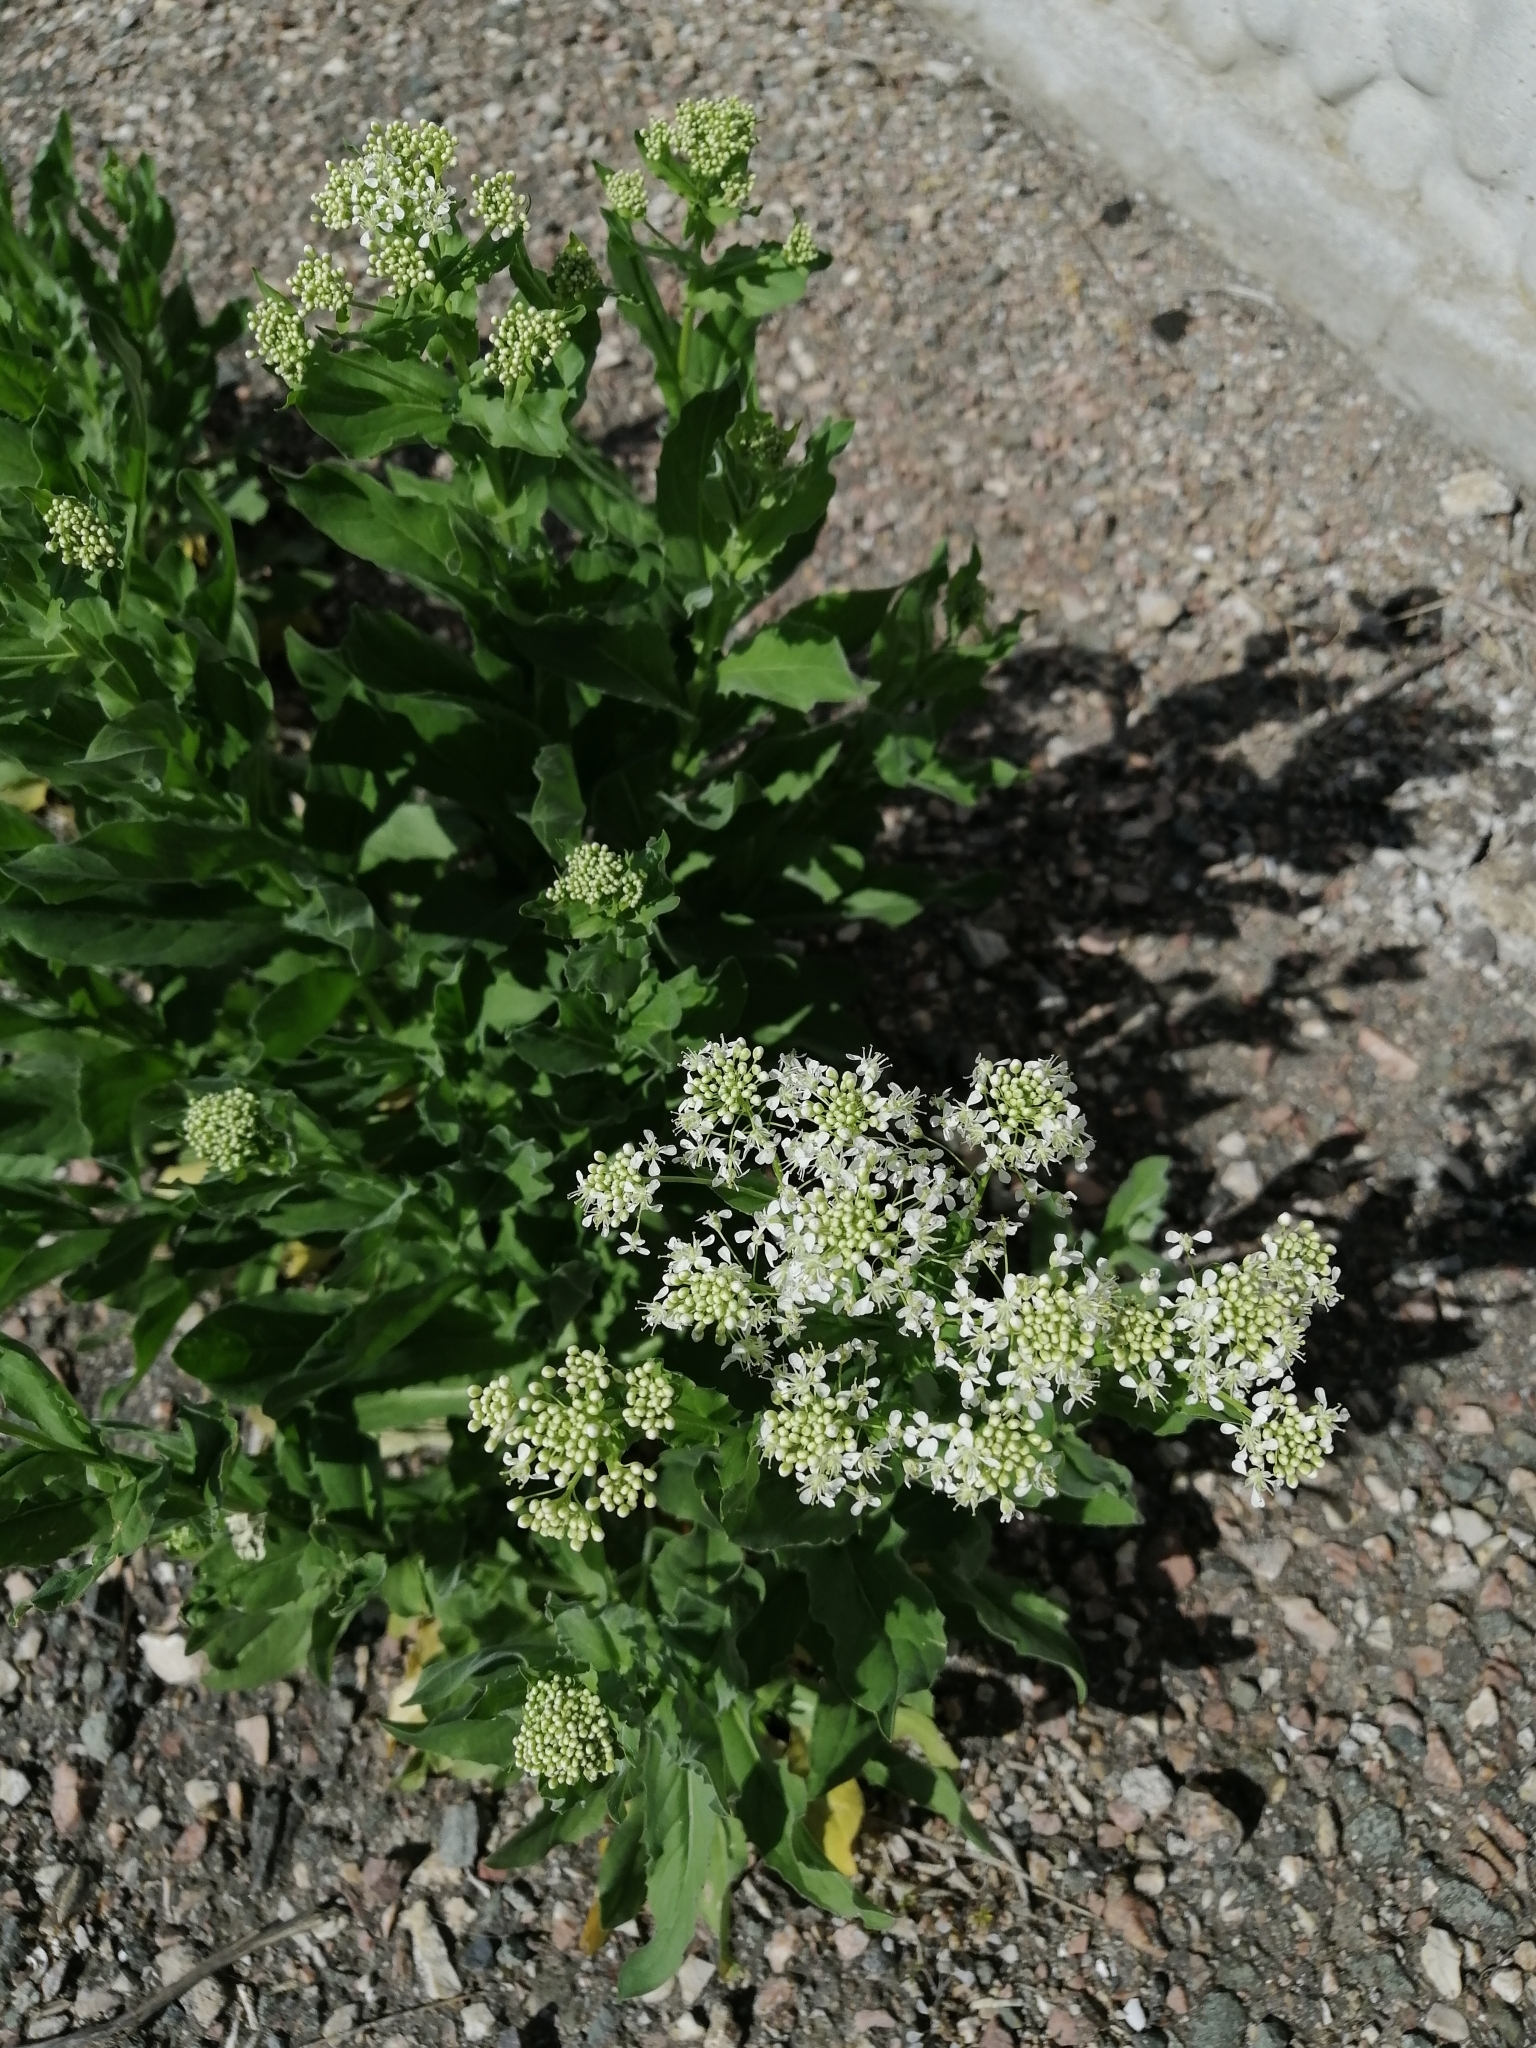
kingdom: Plantae
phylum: Tracheophyta
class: Magnoliopsida
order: Brassicales
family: Brassicaceae
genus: Lepidium
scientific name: Lepidium draba
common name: Hoary cress
